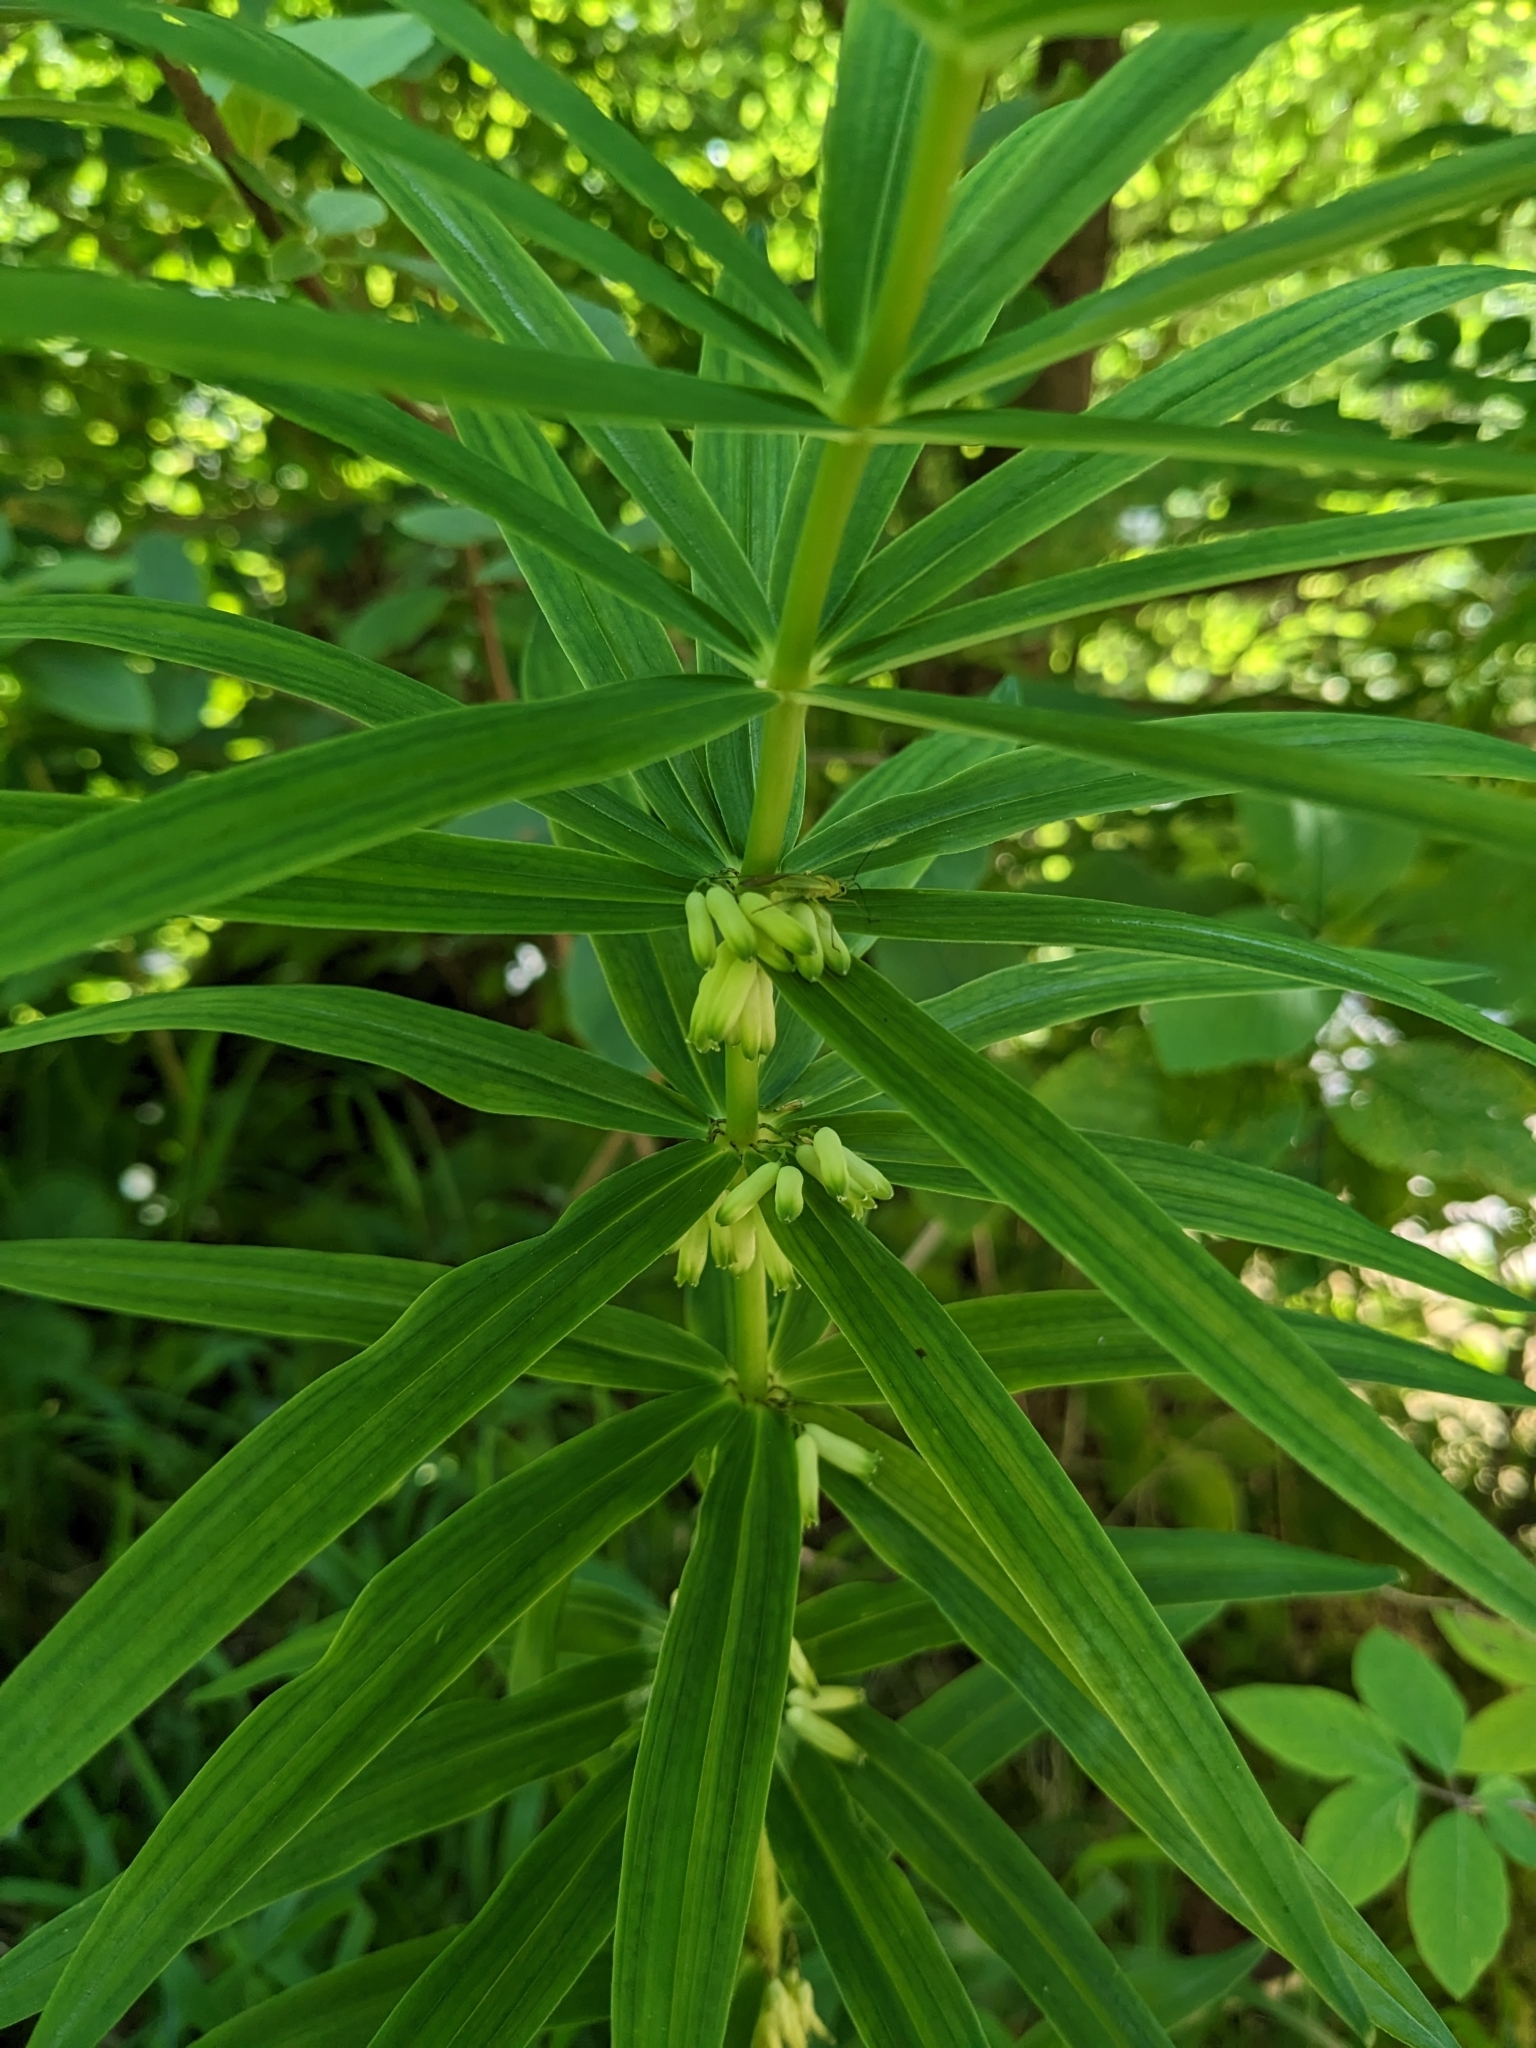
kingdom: Plantae
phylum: Tracheophyta
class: Liliopsida
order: Asparagales
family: Asparagaceae
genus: Polygonatum
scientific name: Polygonatum verticillatum
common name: Whorled solomon's-seal
